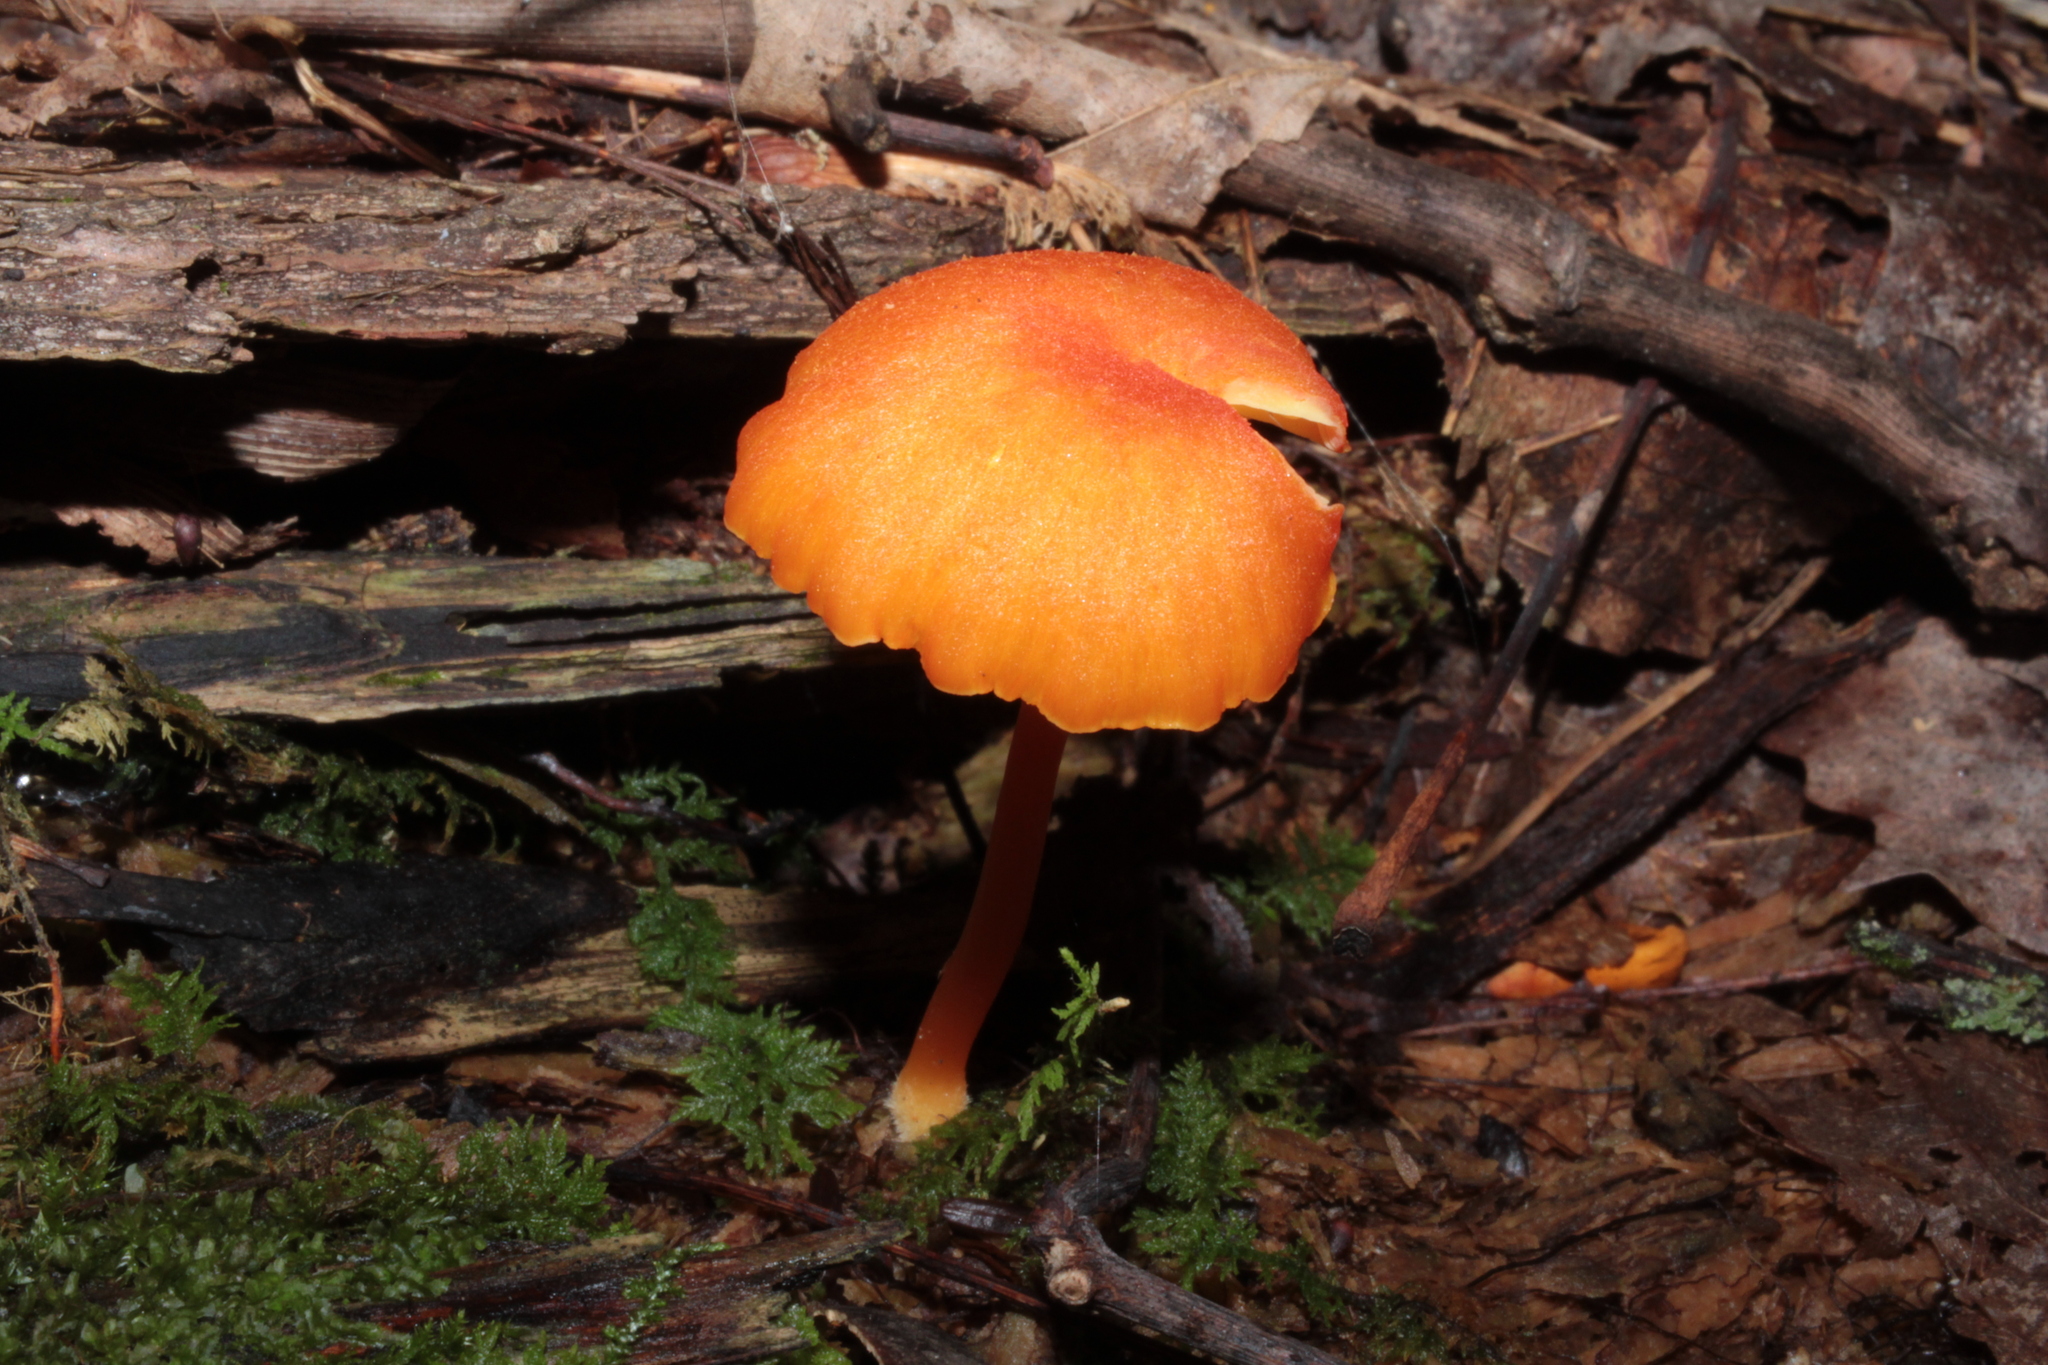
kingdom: Fungi
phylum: Basidiomycota
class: Agaricomycetes
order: Agaricales
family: Hygrophoraceae
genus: Hygrocybe
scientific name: Hygrocybe cantharellus
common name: Goblet waxcap
